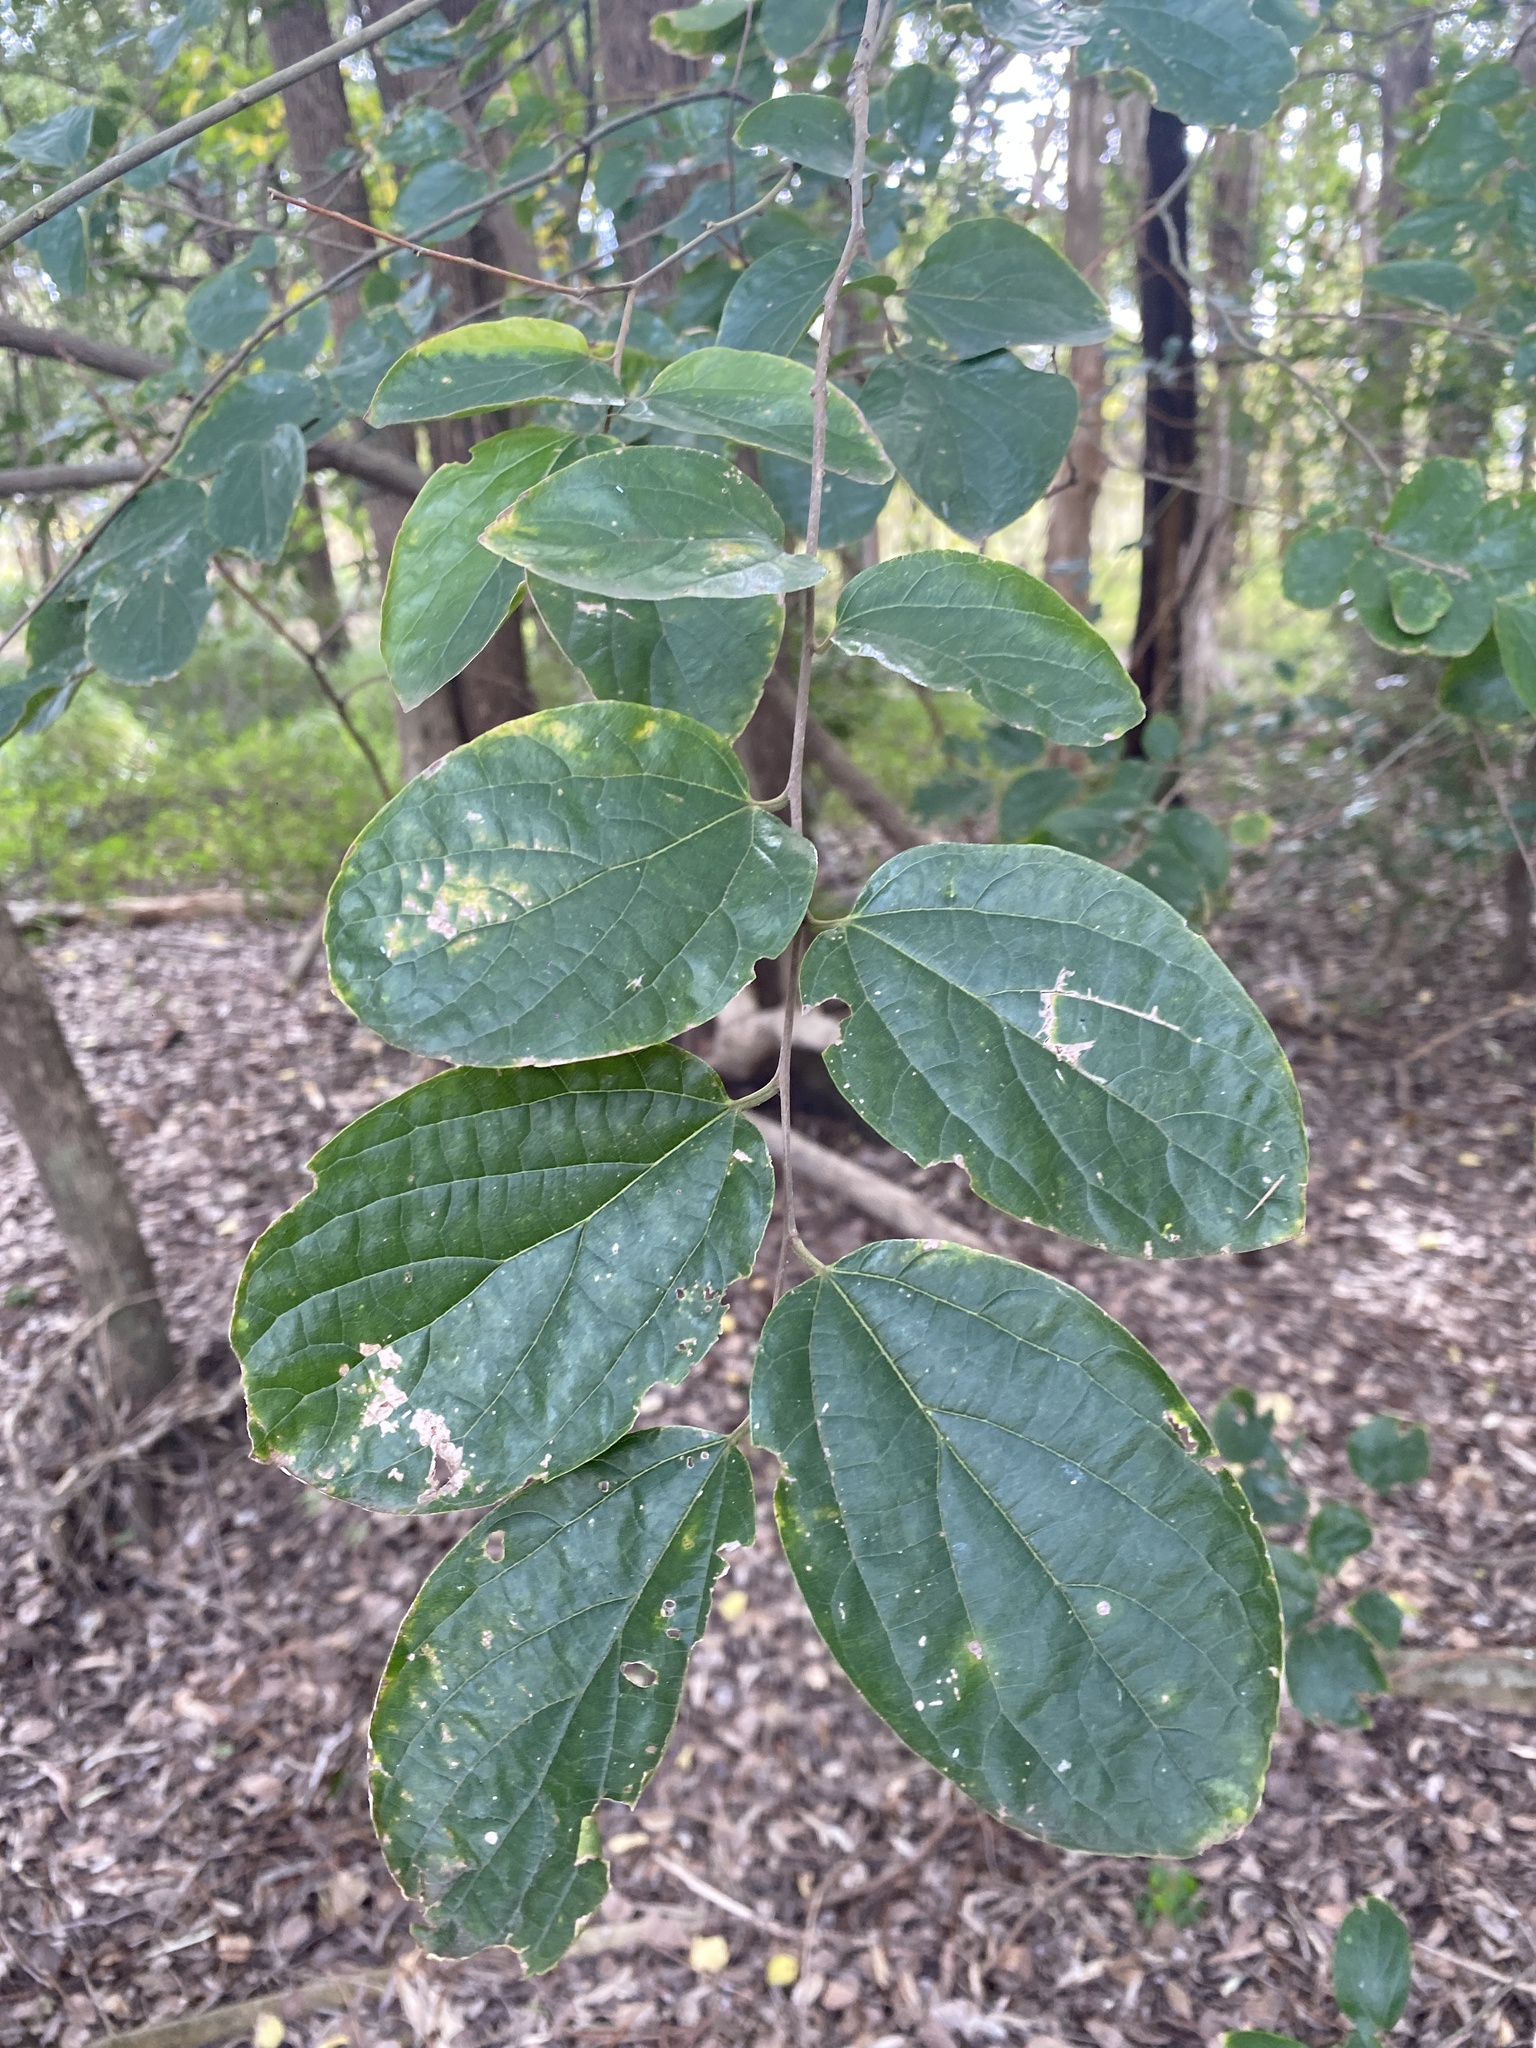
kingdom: Plantae
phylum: Tracheophyta
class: Magnoliopsida
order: Rosales
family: Cannabaceae
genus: Celtis
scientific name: Celtis sinensis
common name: Chinese hackberry
